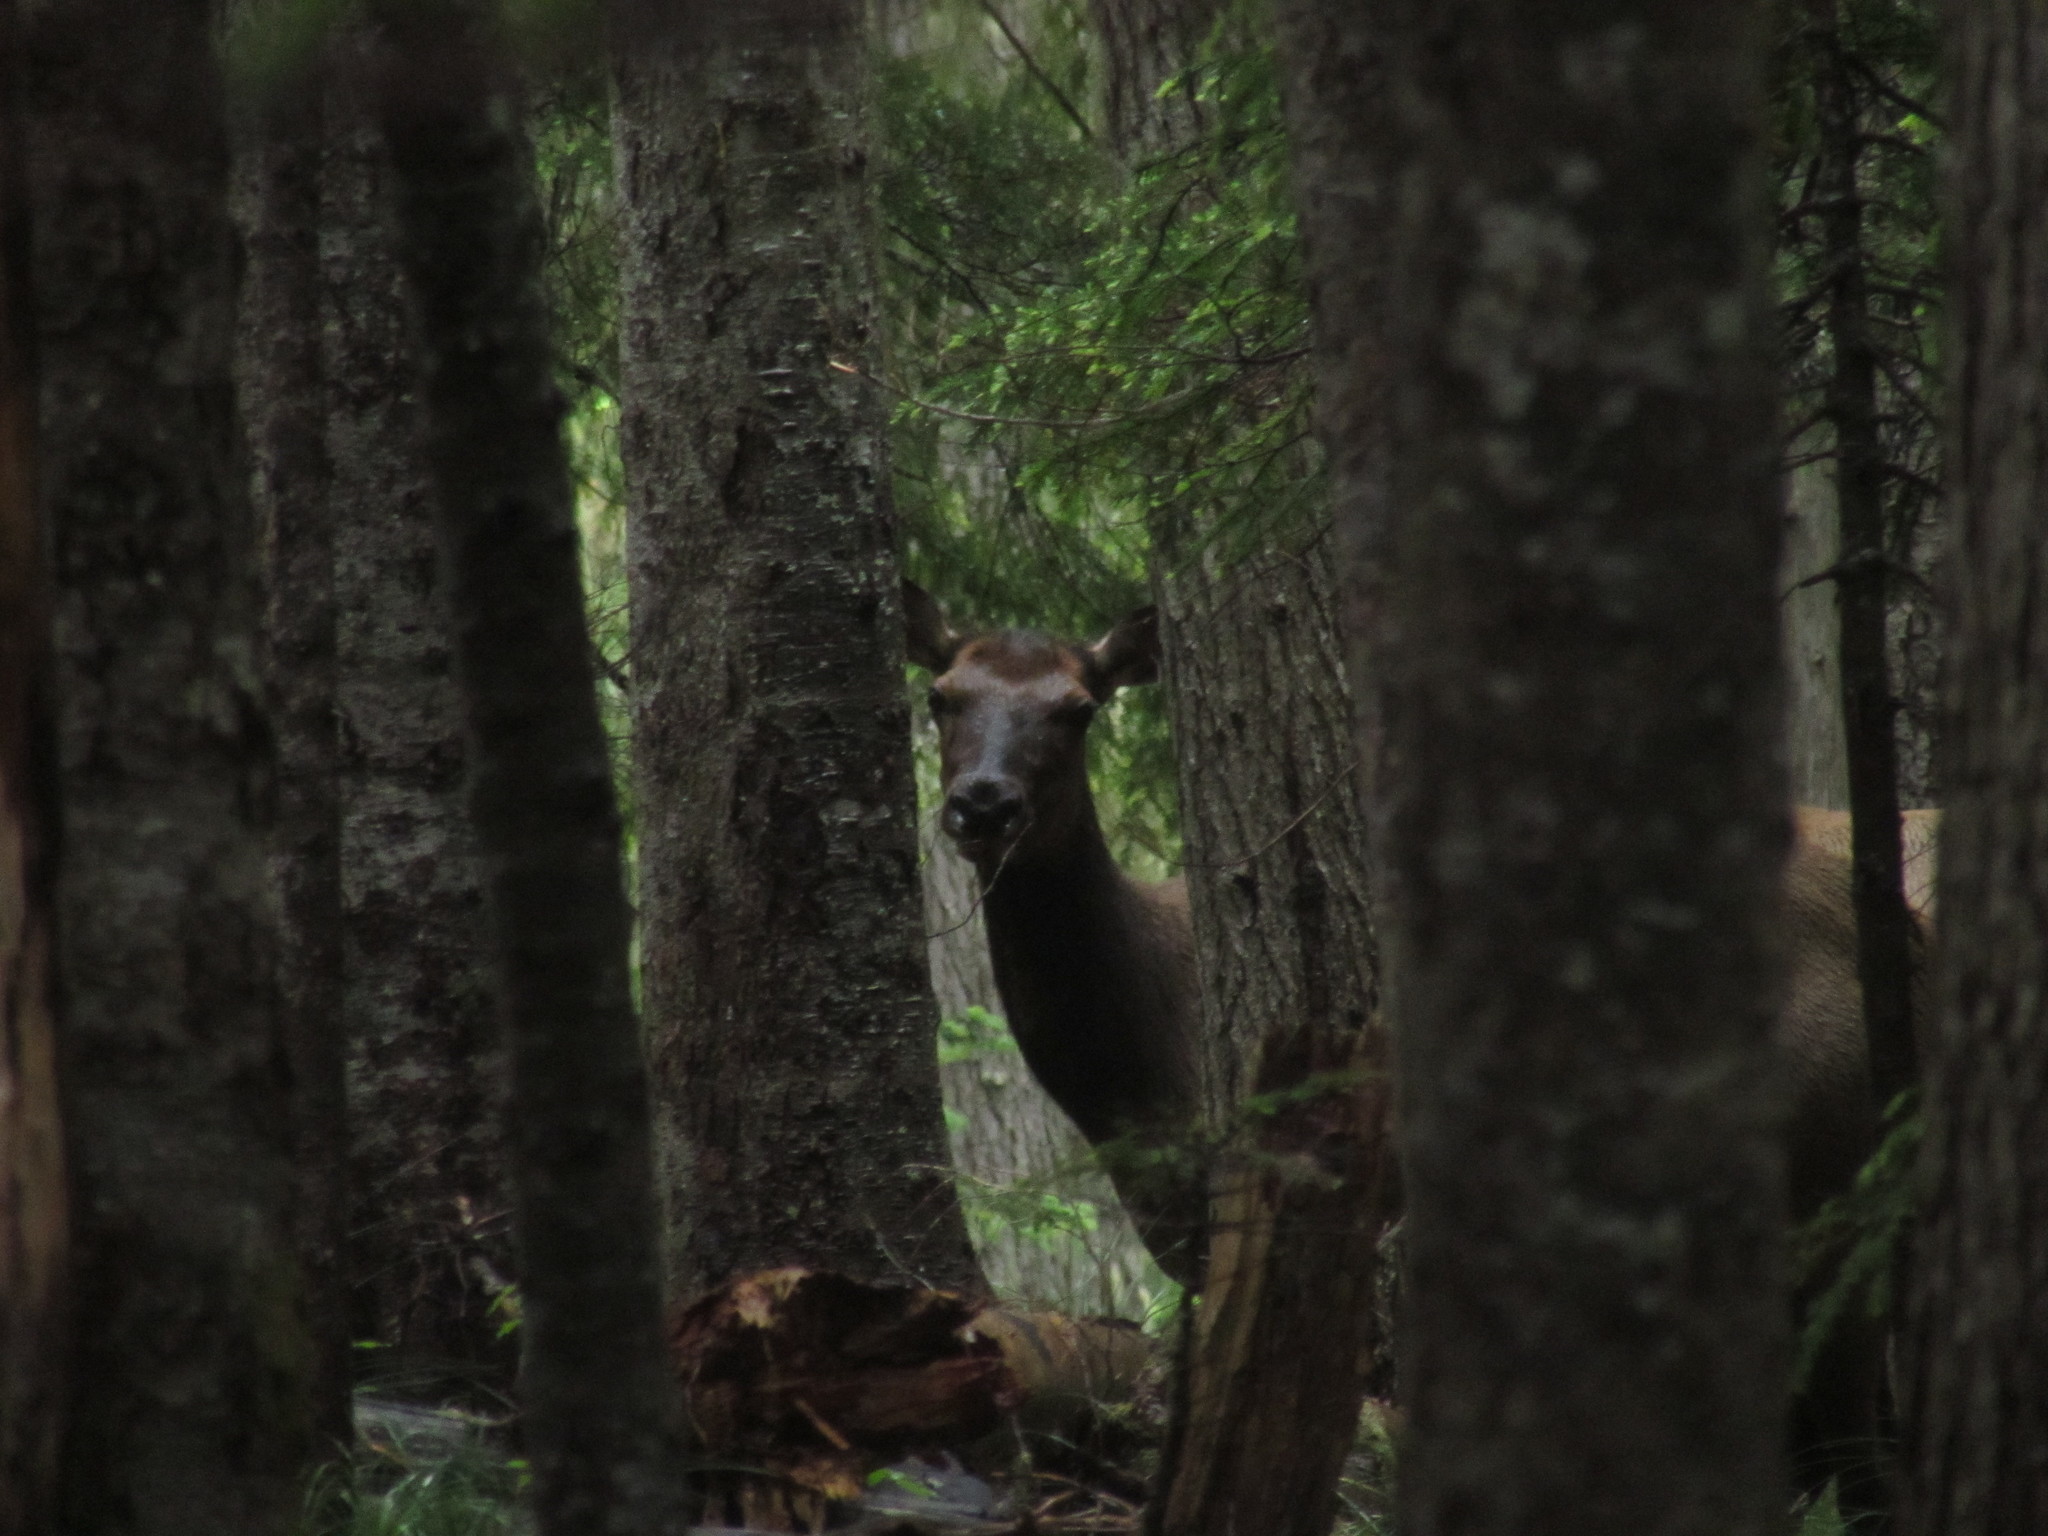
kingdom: Animalia
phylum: Chordata
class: Mammalia
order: Artiodactyla
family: Cervidae
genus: Cervus
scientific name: Cervus elaphus
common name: Red deer
